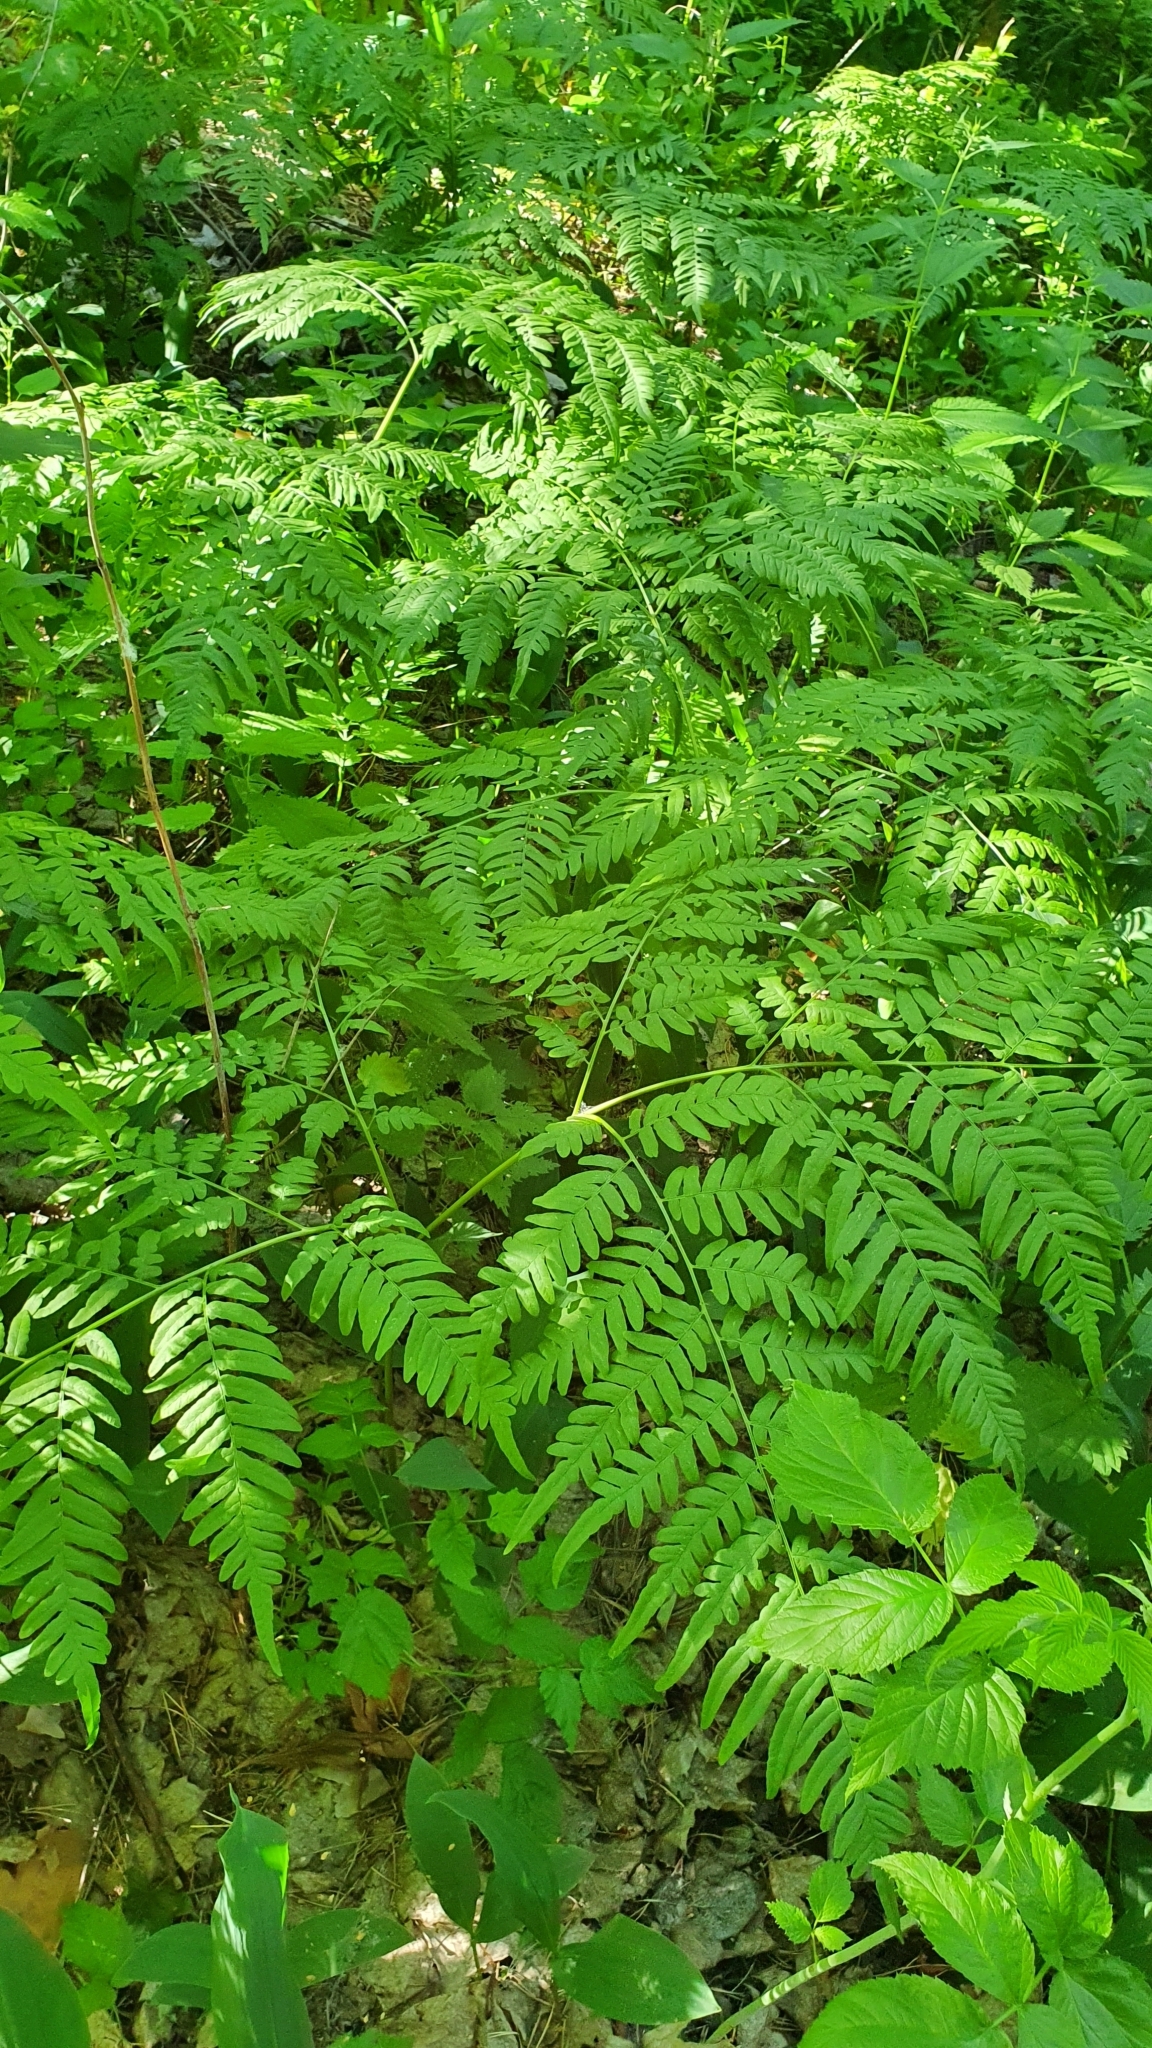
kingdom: Plantae
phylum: Tracheophyta
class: Polypodiopsida
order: Polypodiales
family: Dennstaedtiaceae
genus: Pteridium
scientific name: Pteridium aquilinum
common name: Bracken
